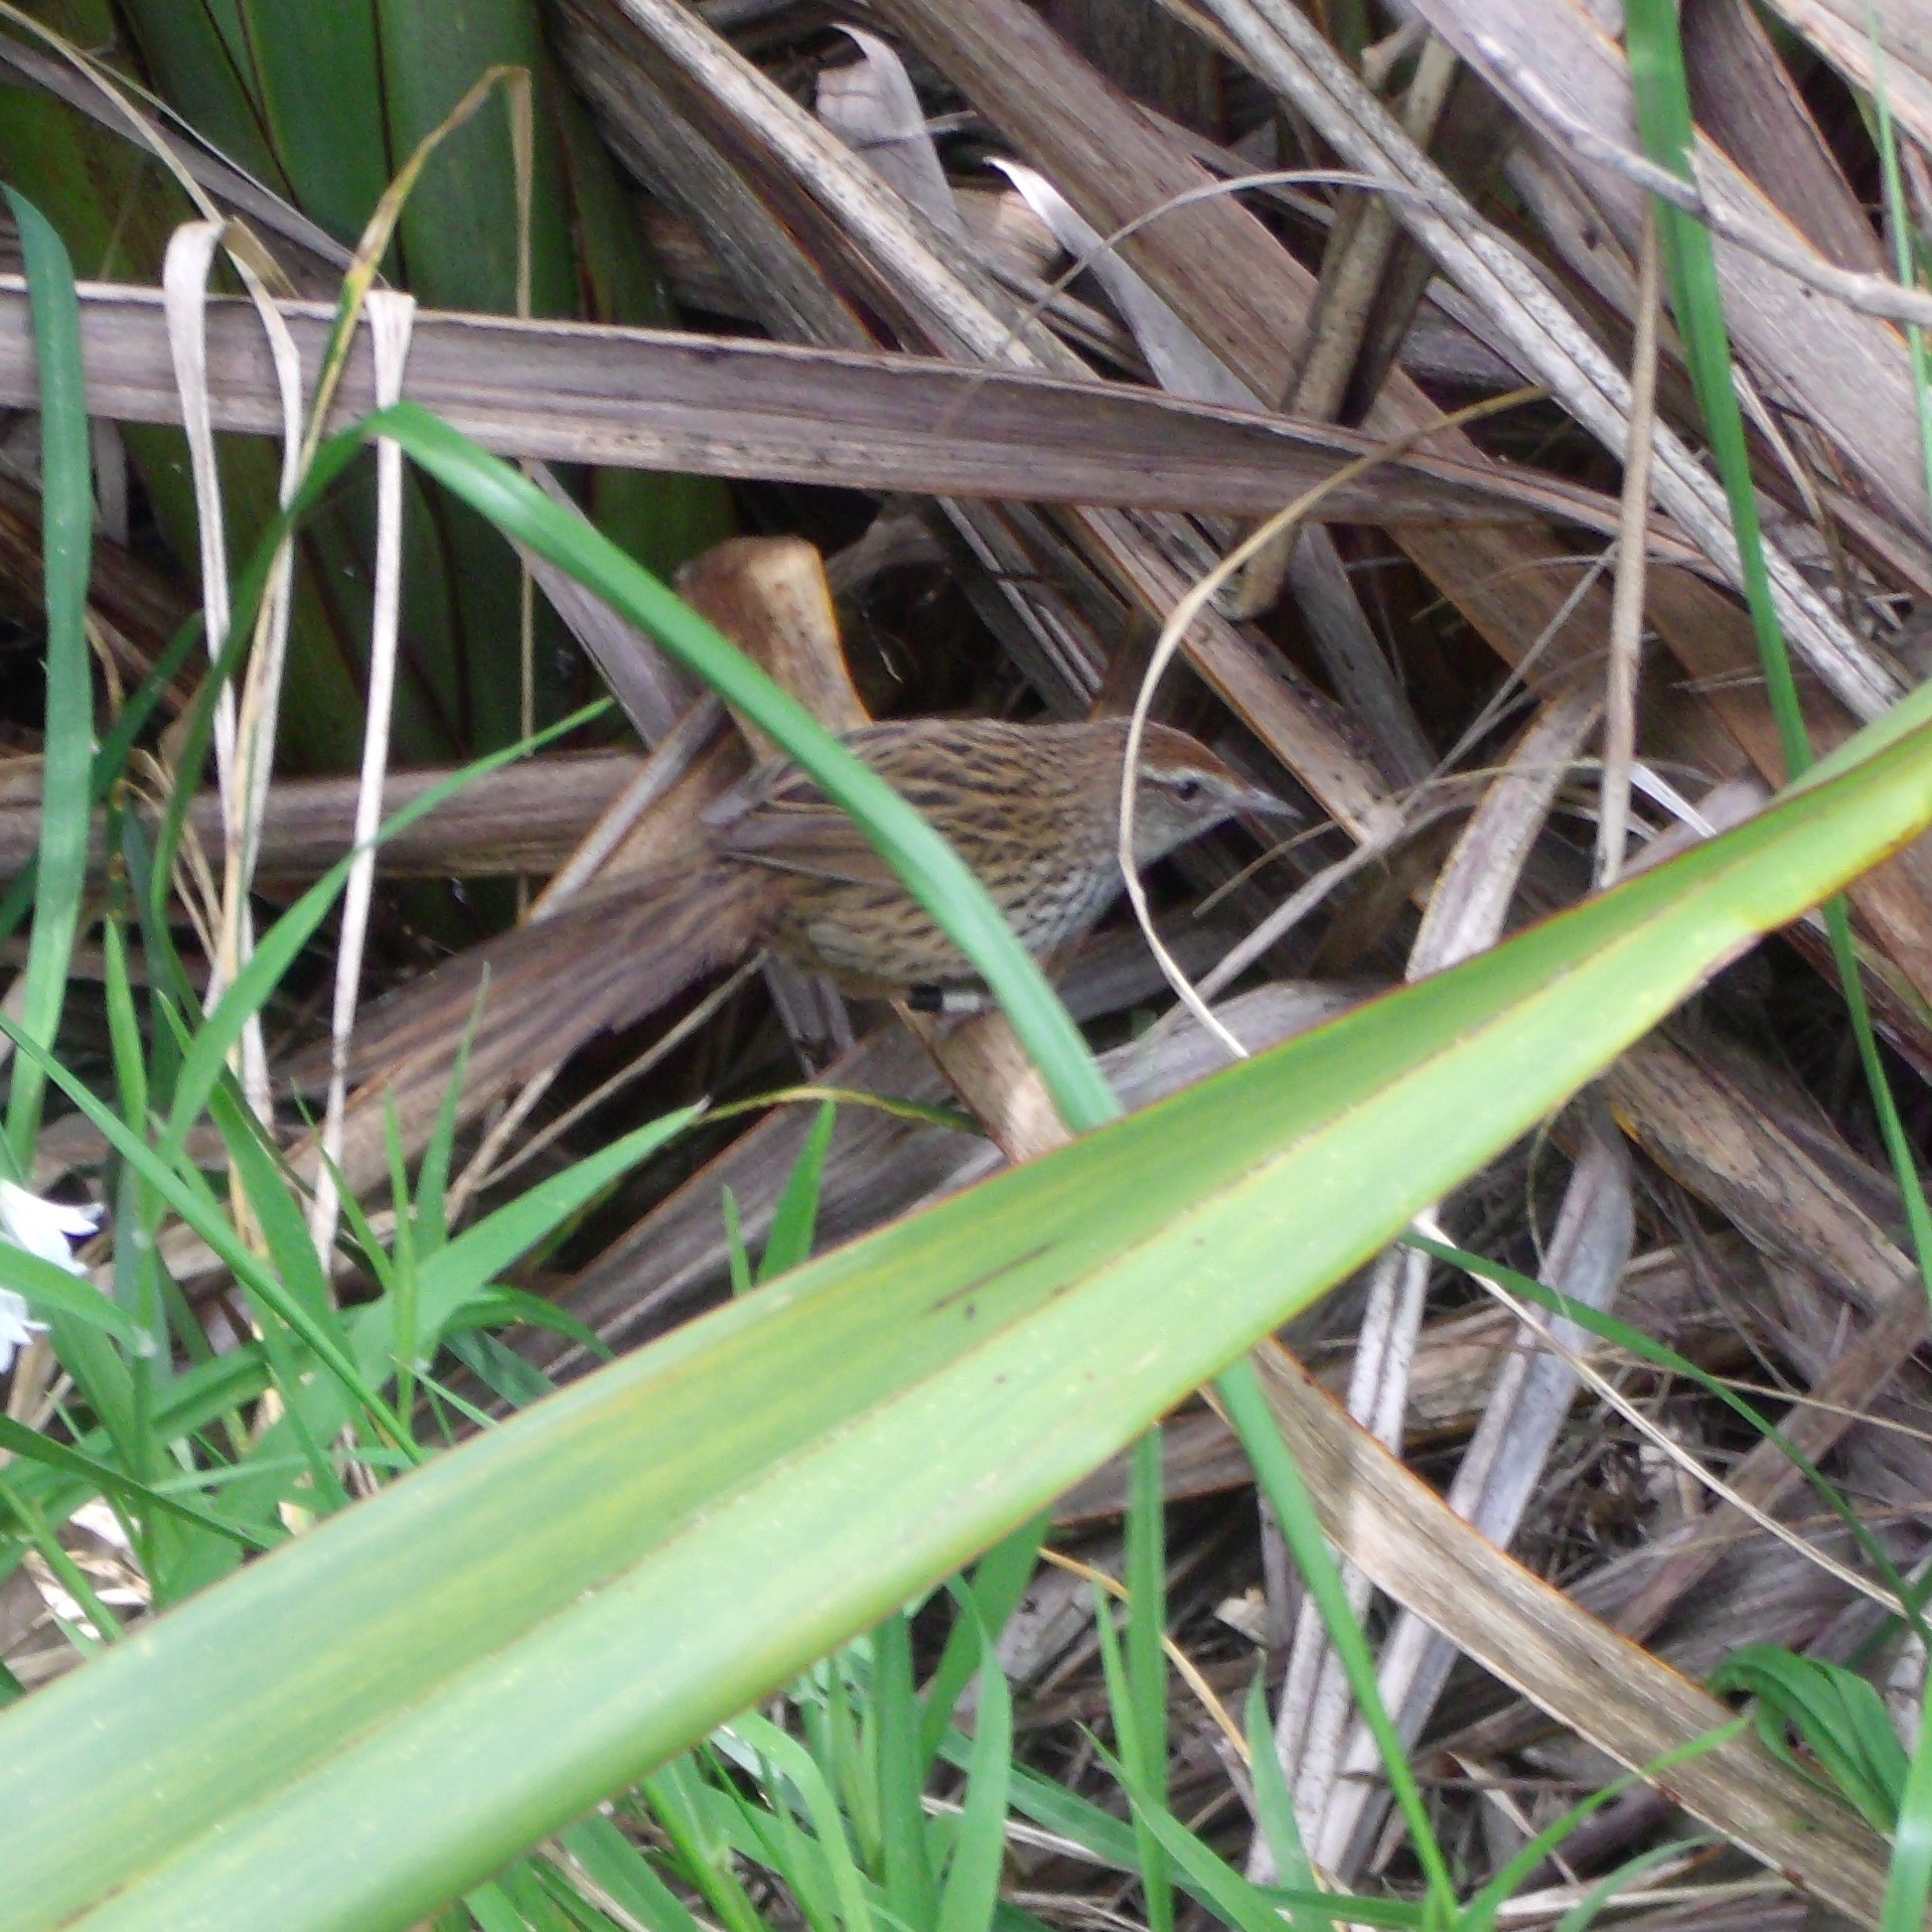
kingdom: Animalia
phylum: Chordata
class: Aves
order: Passeriformes
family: Locustellidae
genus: Megalurus
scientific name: Megalurus punctatus
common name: New zealand fernbird
